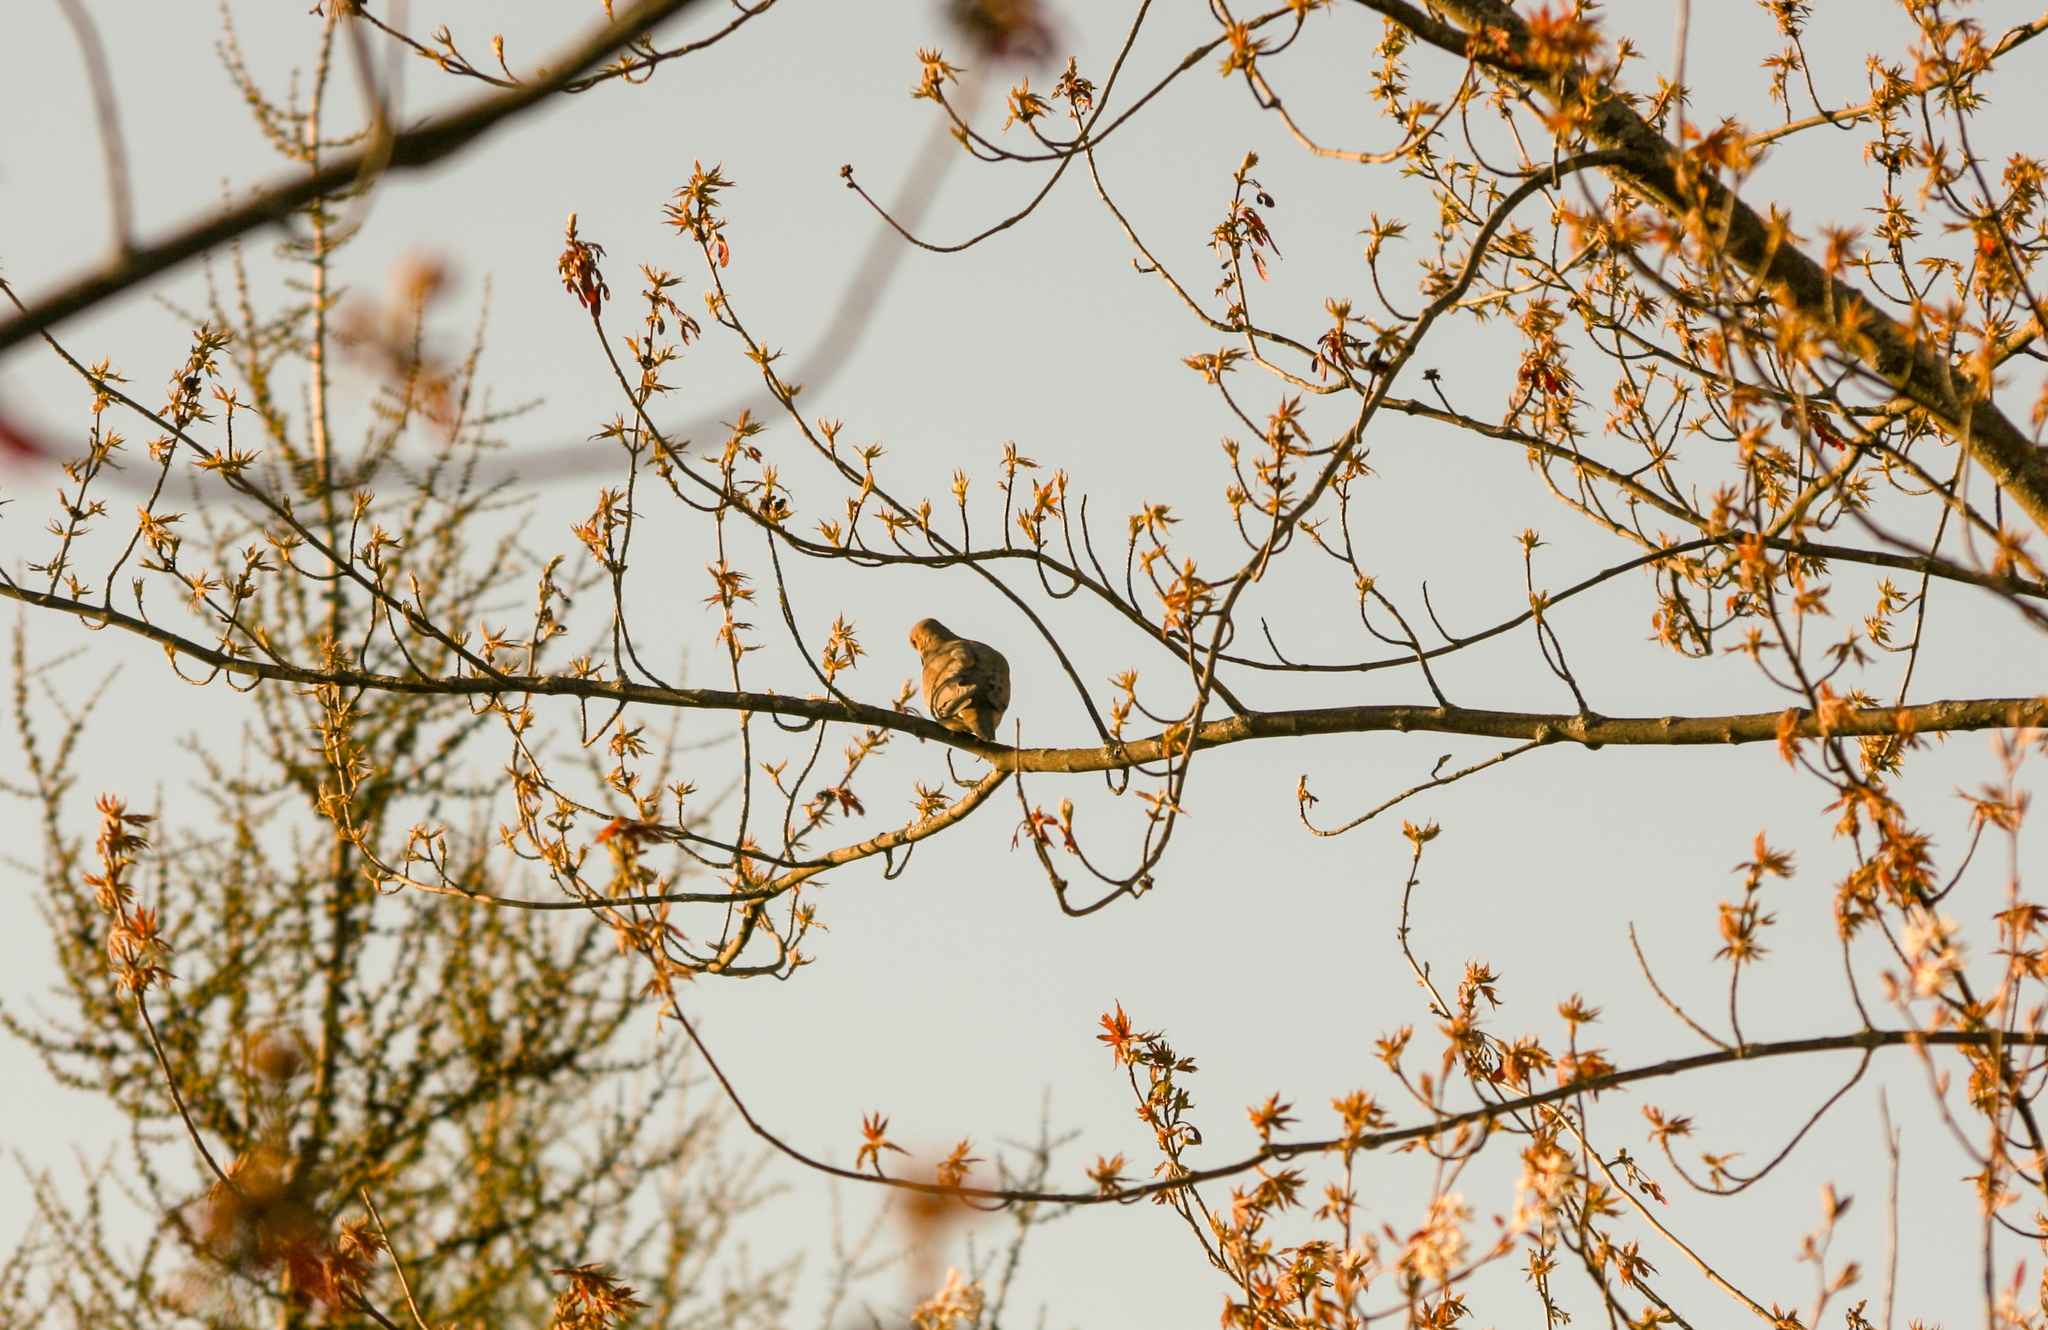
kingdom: Animalia
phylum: Chordata
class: Aves
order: Columbiformes
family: Columbidae
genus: Zenaida
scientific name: Zenaida macroura
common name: Mourning dove
